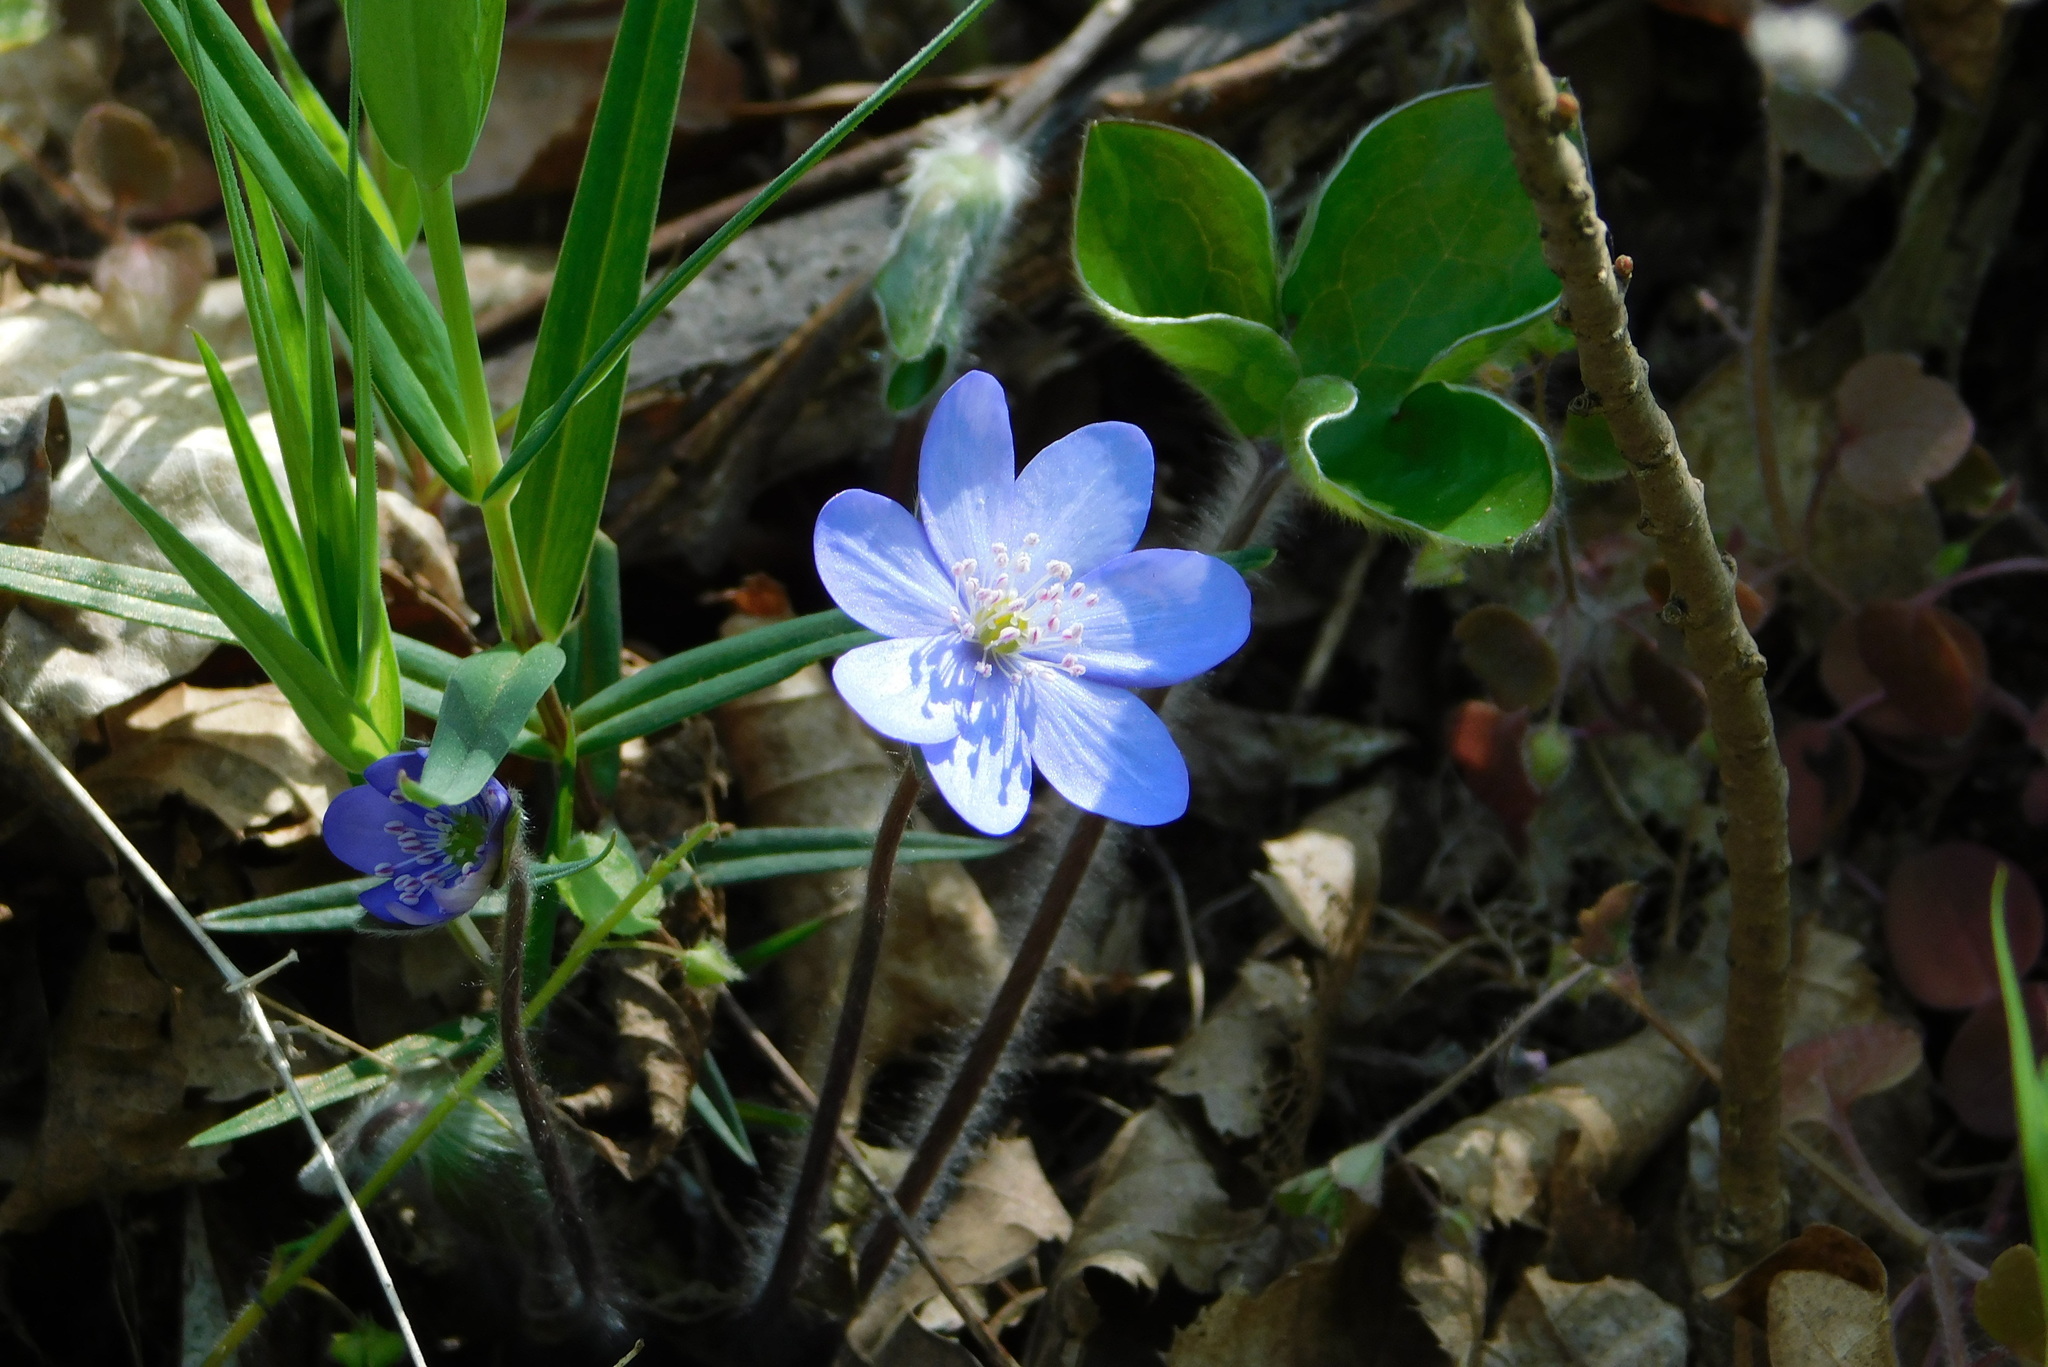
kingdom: Plantae
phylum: Tracheophyta
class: Magnoliopsida
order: Ranunculales
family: Ranunculaceae
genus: Hepatica
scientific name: Hepatica nobilis
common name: Liverleaf
